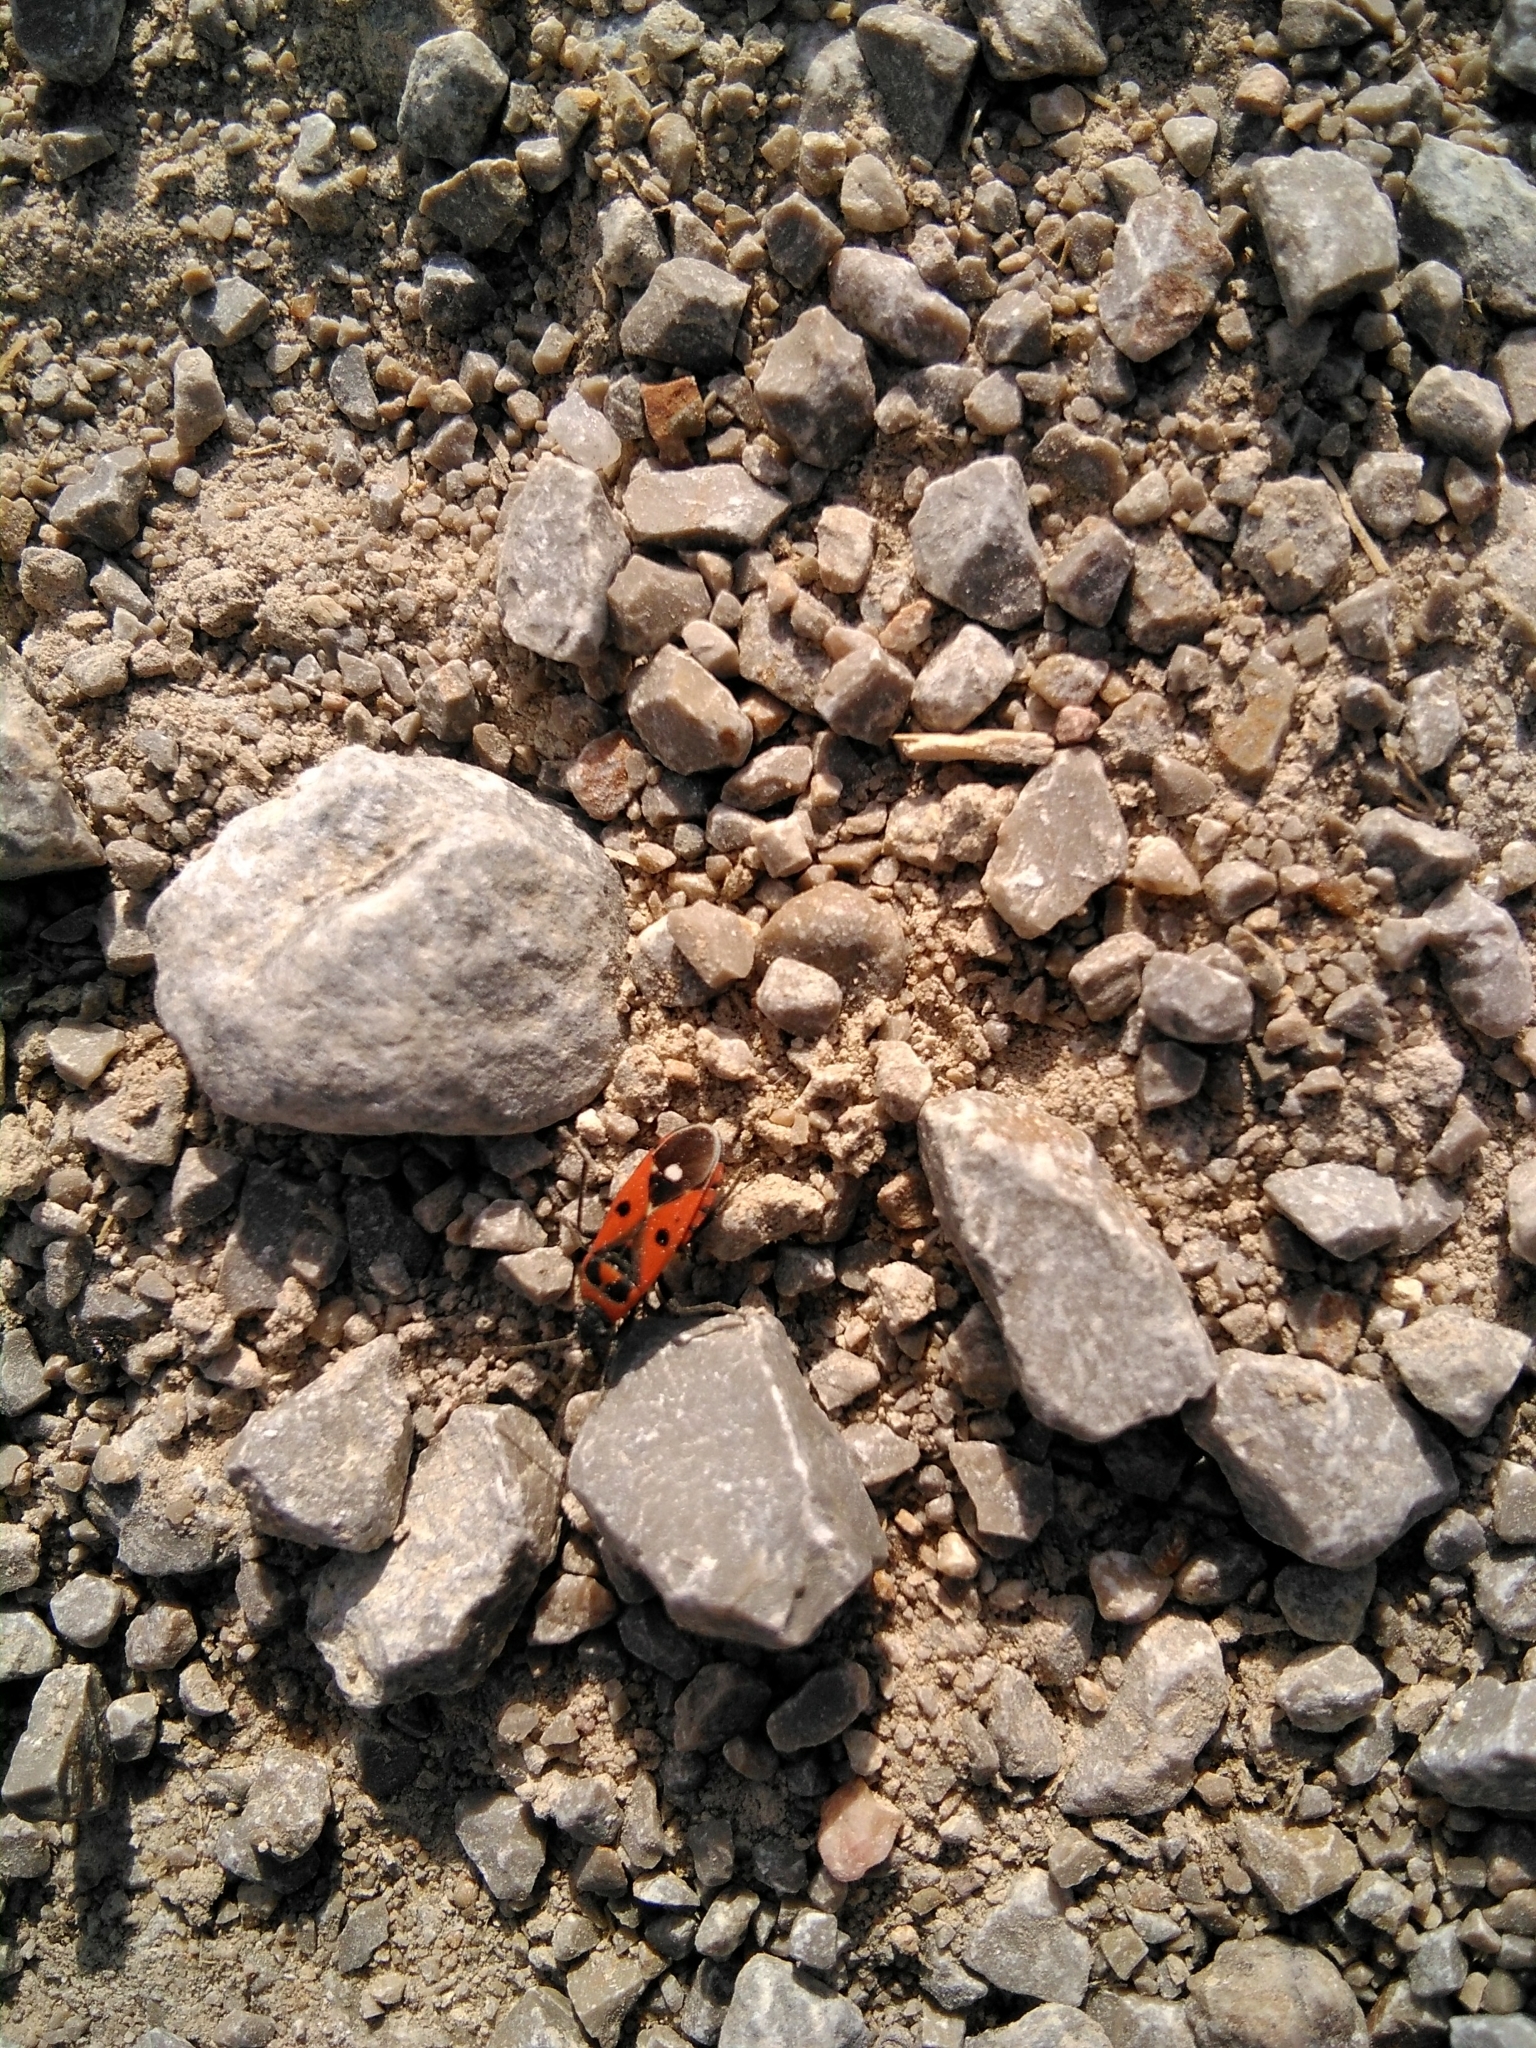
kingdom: Animalia
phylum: Arthropoda
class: Insecta
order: Hemiptera
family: Lygaeidae
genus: Melanocoryphus
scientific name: Melanocoryphus albomaculatus
